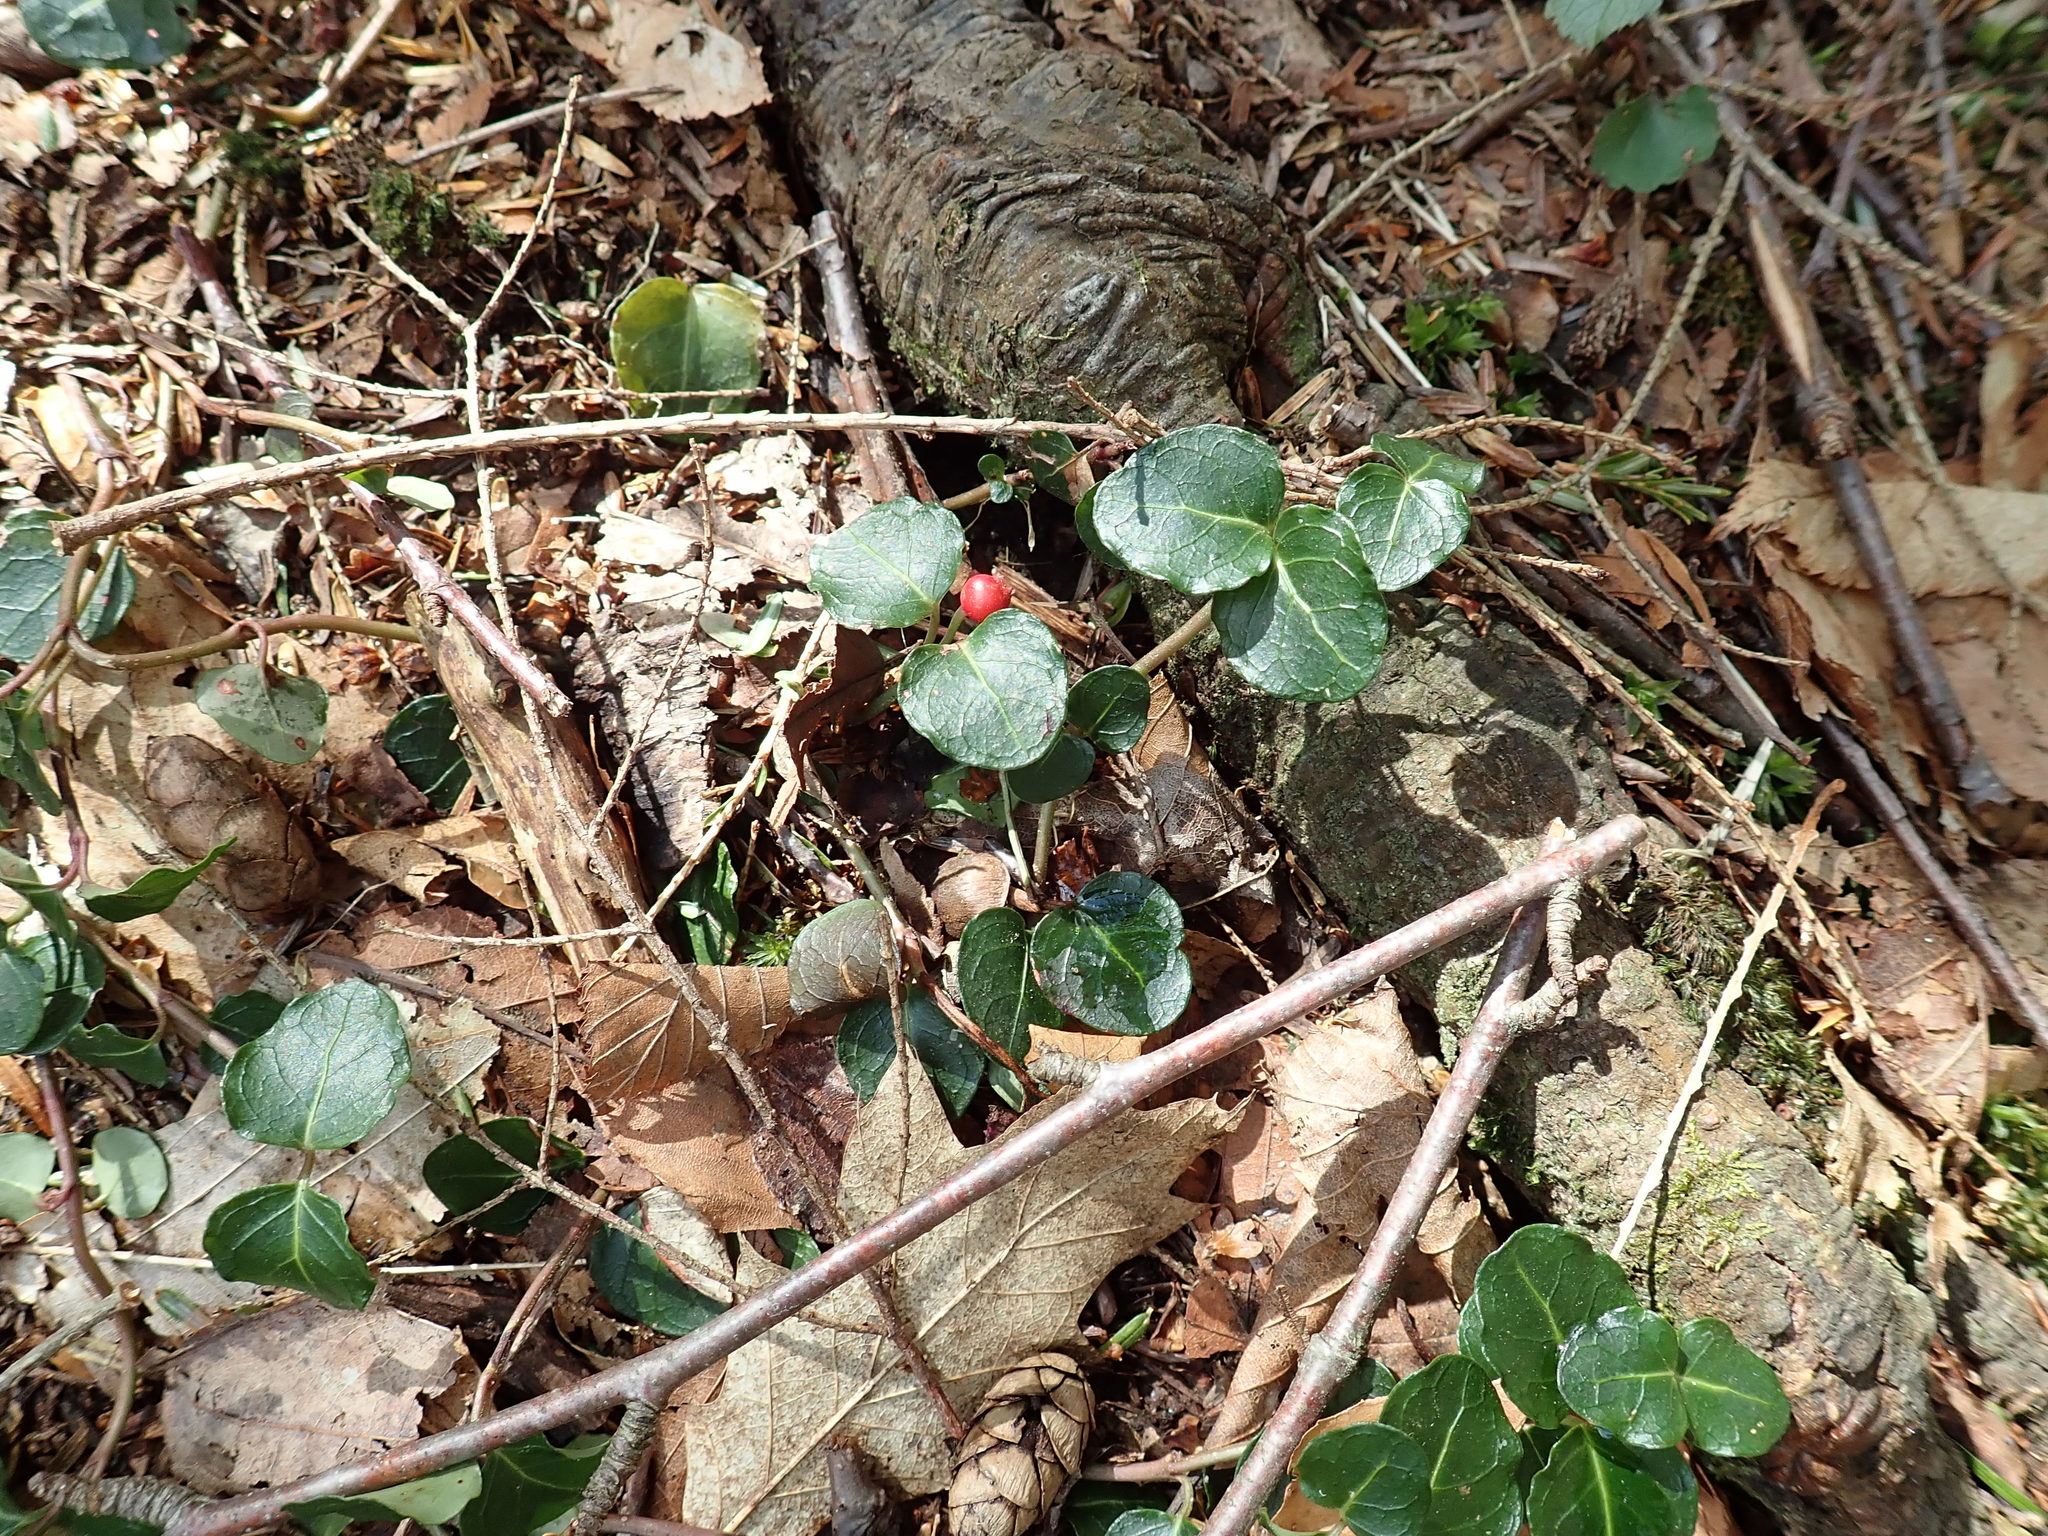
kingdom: Plantae
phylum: Tracheophyta
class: Magnoliopsida
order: Gentianales
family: Rubiaceae
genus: Mitchella
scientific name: Mitchella repens
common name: Partridge-berry
